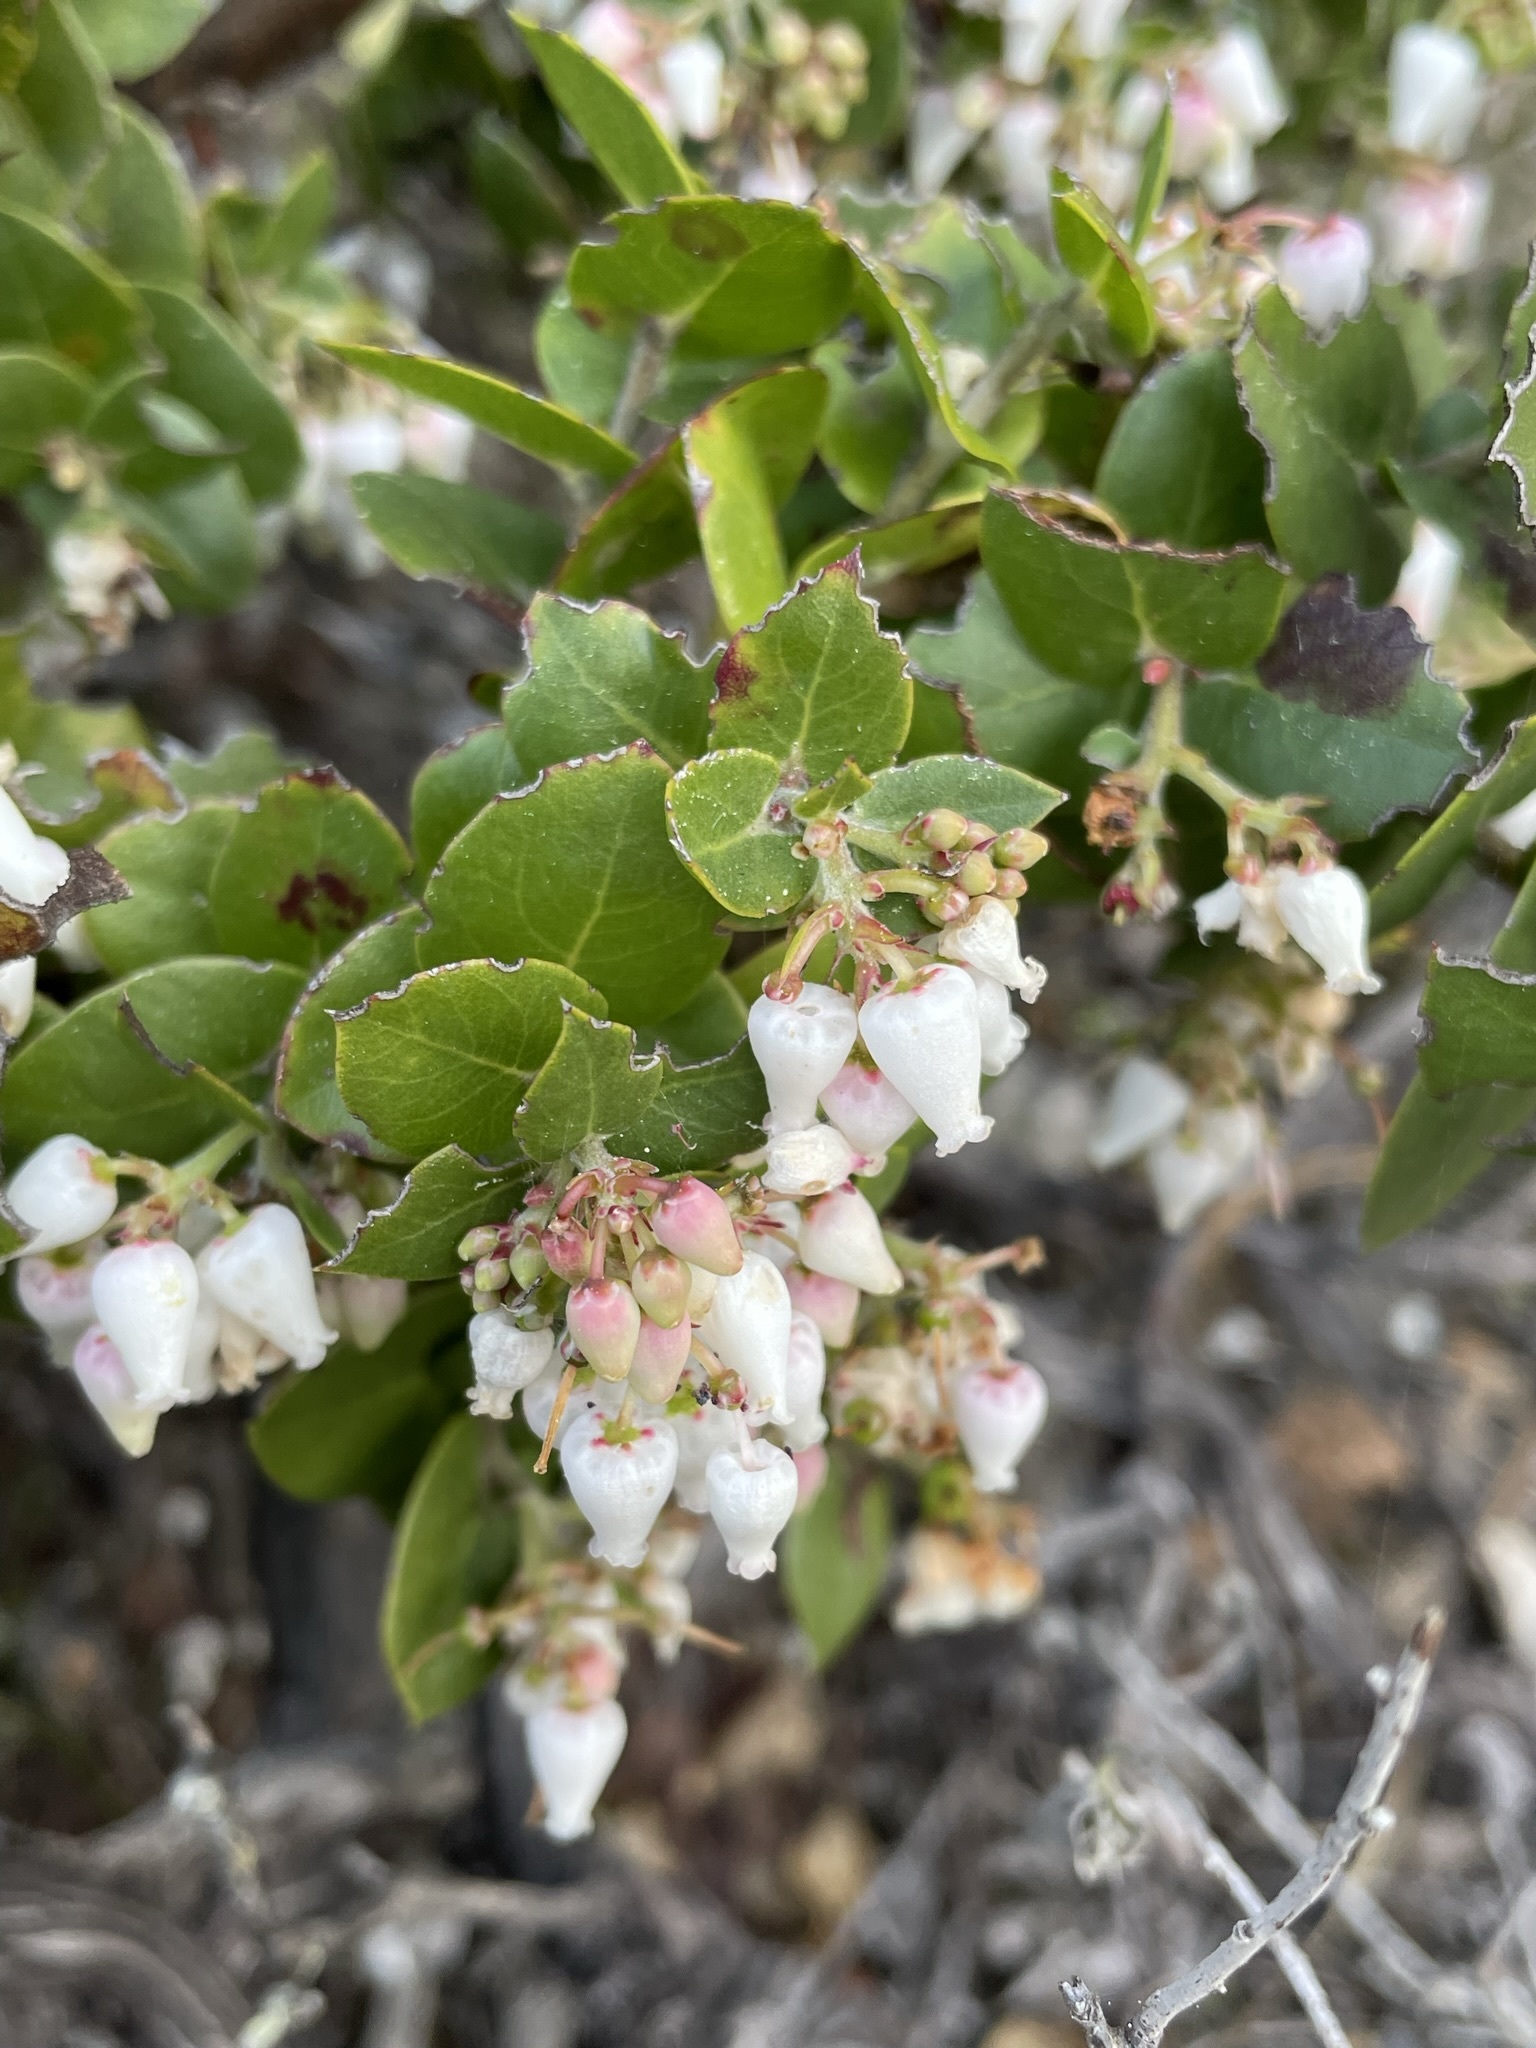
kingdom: Plantae
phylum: Tracheophyta
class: Magnoliopsida
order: Ericales
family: Ericaceae
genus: Arctostaphylos
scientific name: Arctostaphylos osoensis
